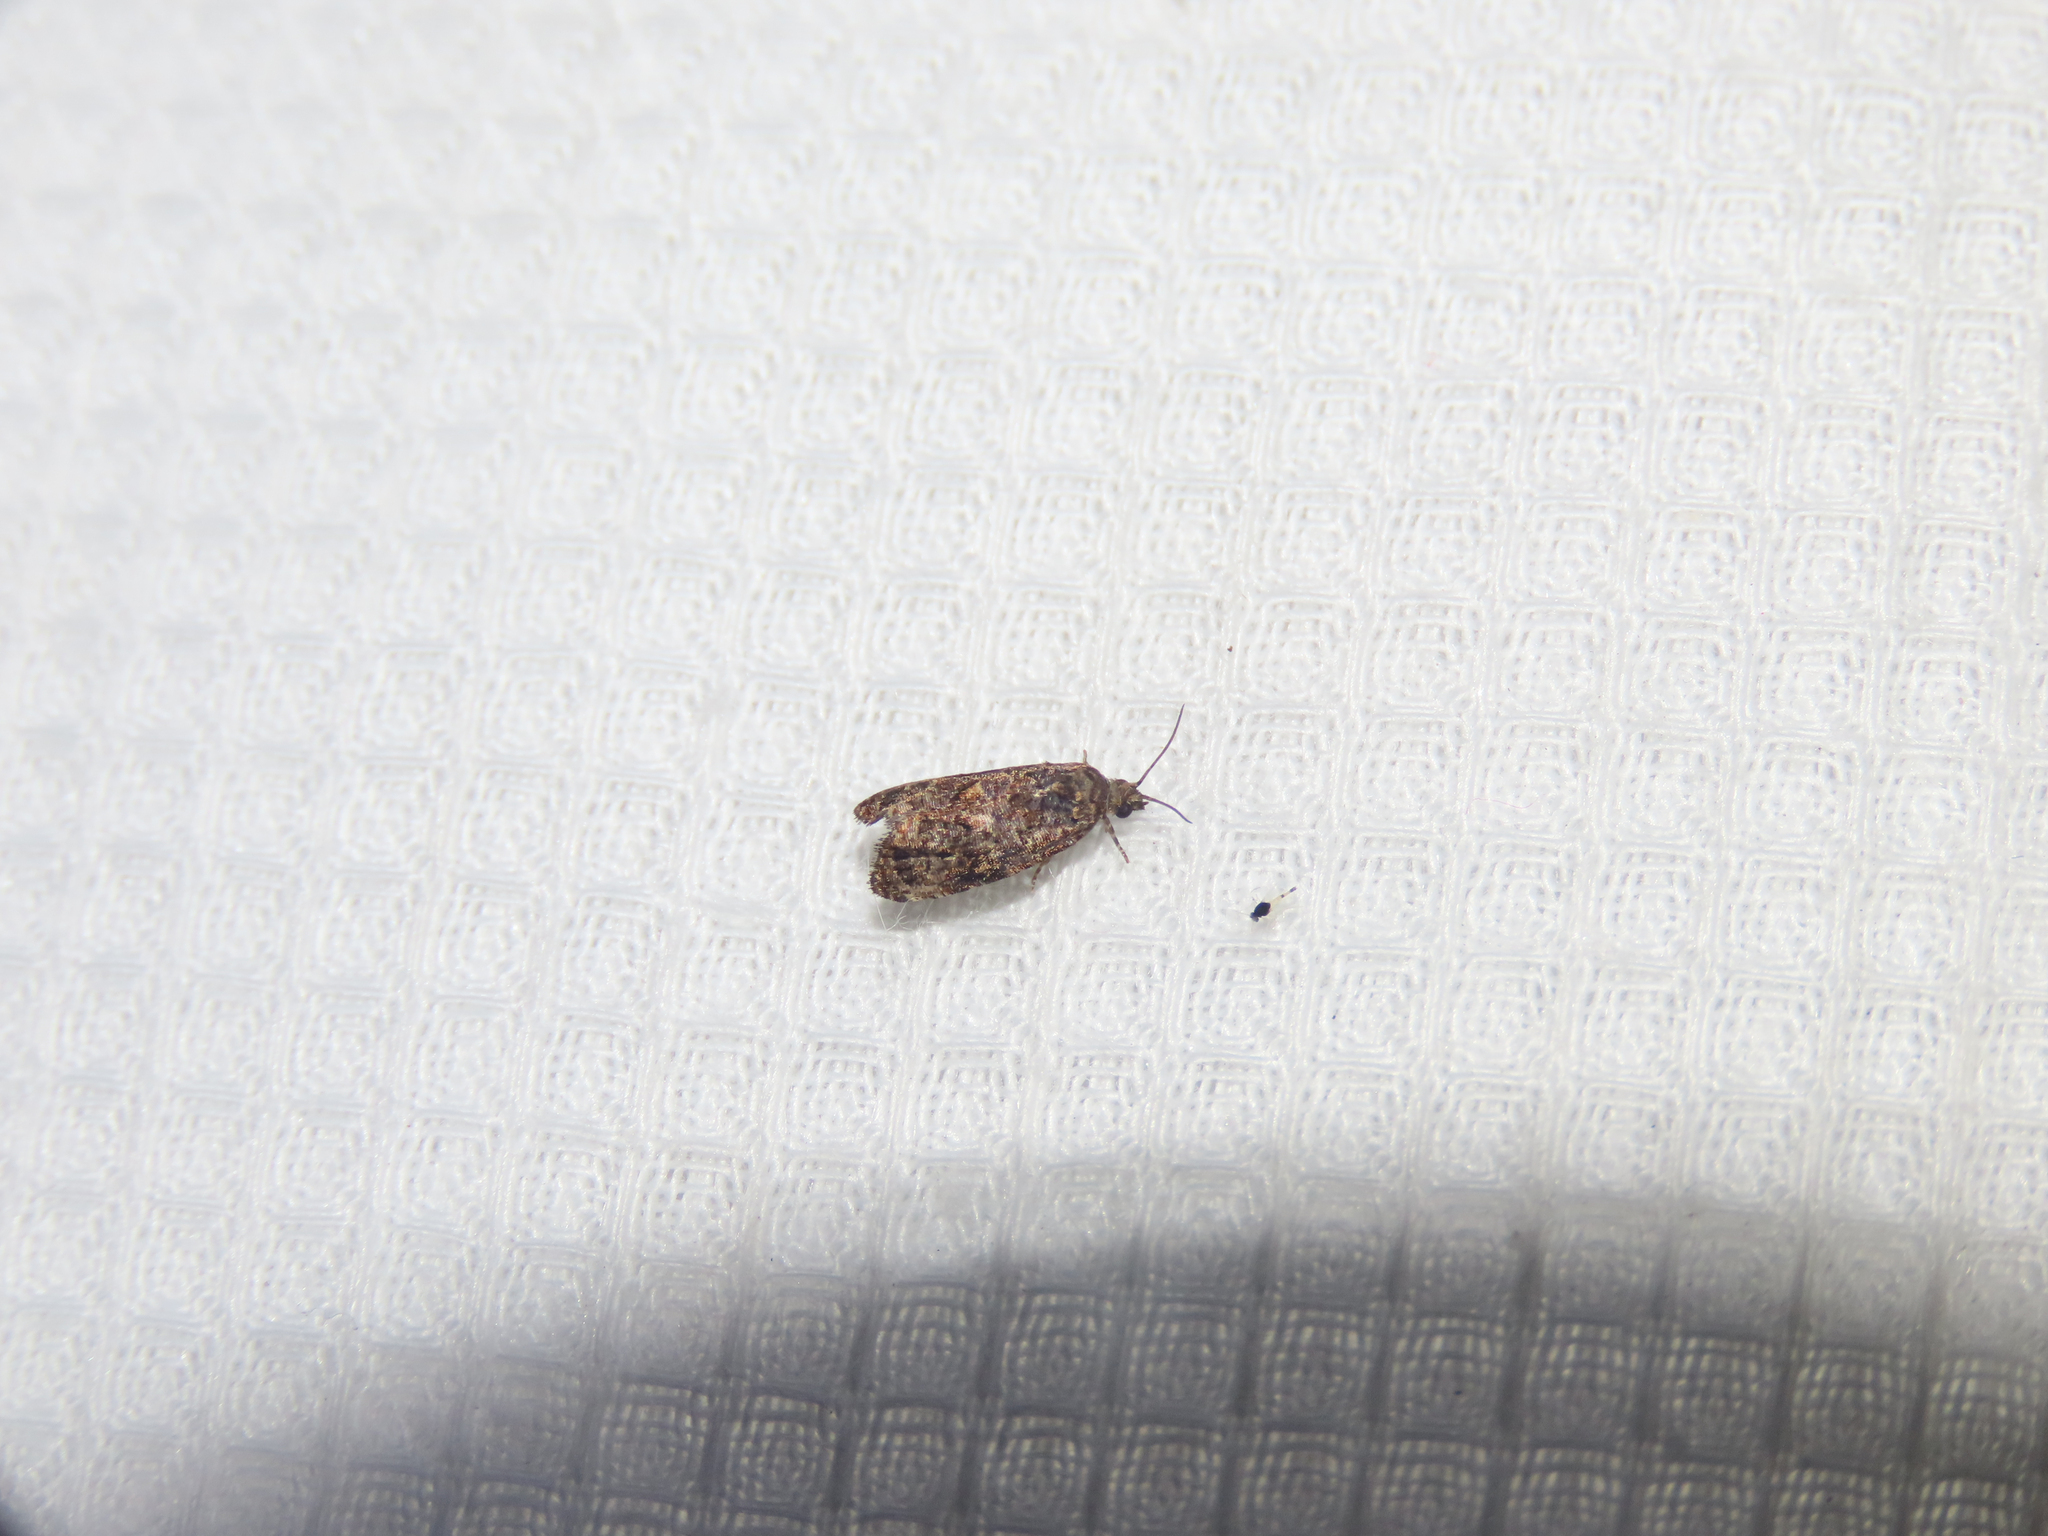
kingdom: Animalia
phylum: Arthropoda
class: Insecta
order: Lepidoptera
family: Tortricidae
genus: Endothenia
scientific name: Endothenia hebesana
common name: Verbena bud moth
